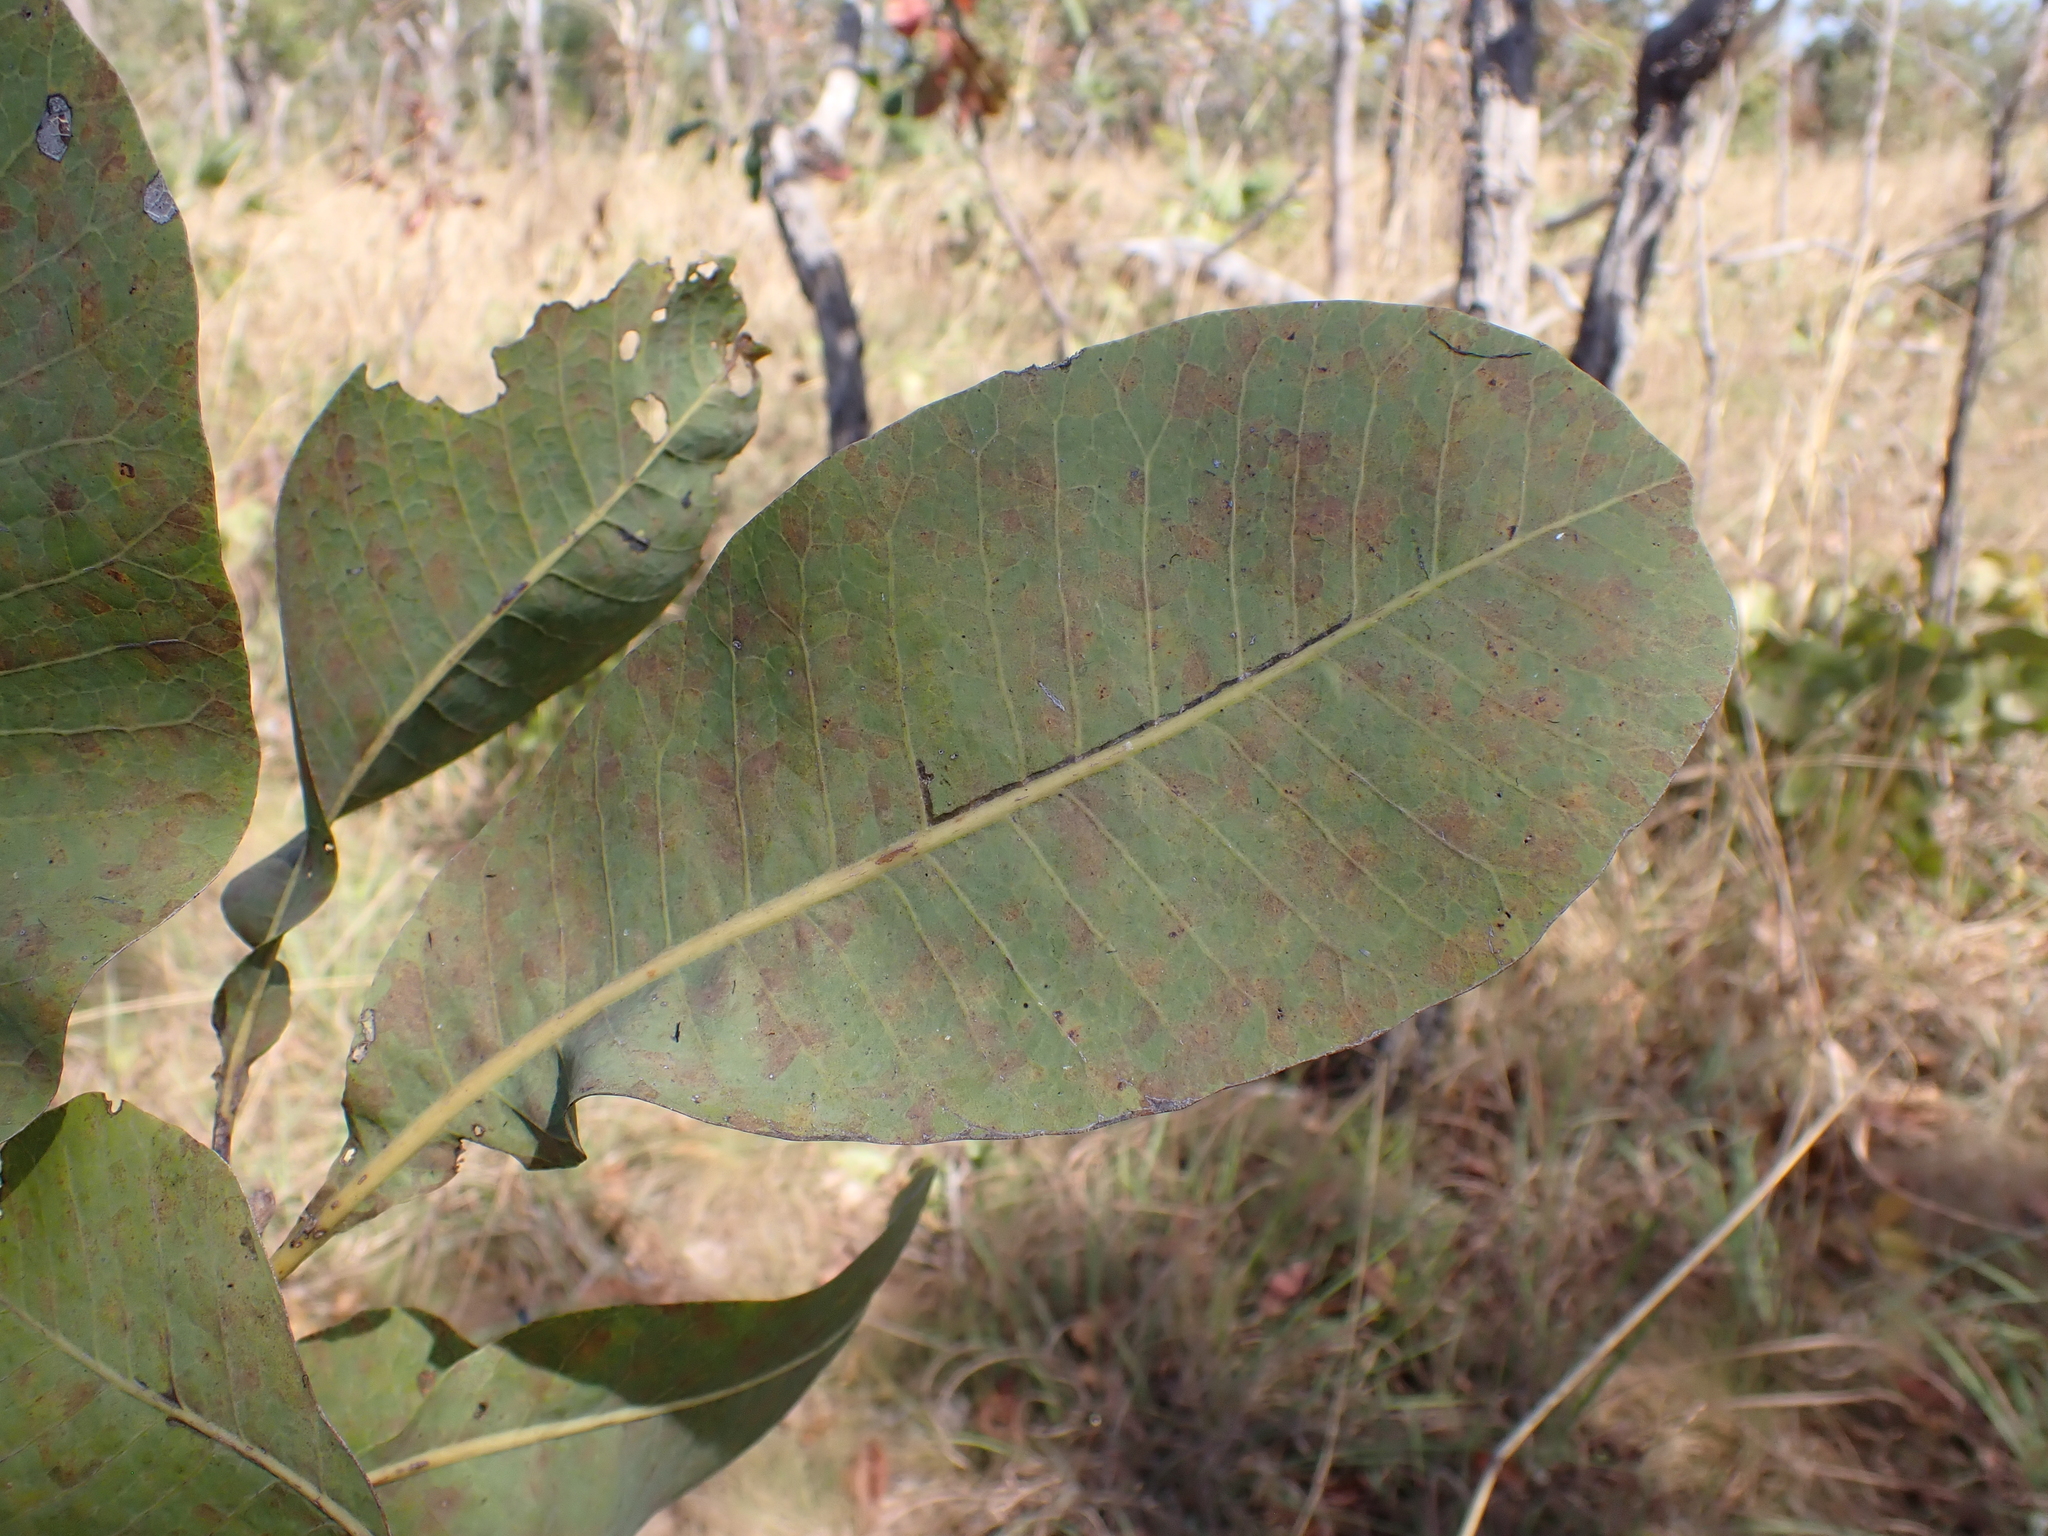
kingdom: Plantae
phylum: Tracheophyta
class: Magnoliopsida
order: Sapindales
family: Anacardiaceae
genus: Buchanania
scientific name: Buchanania obovata
